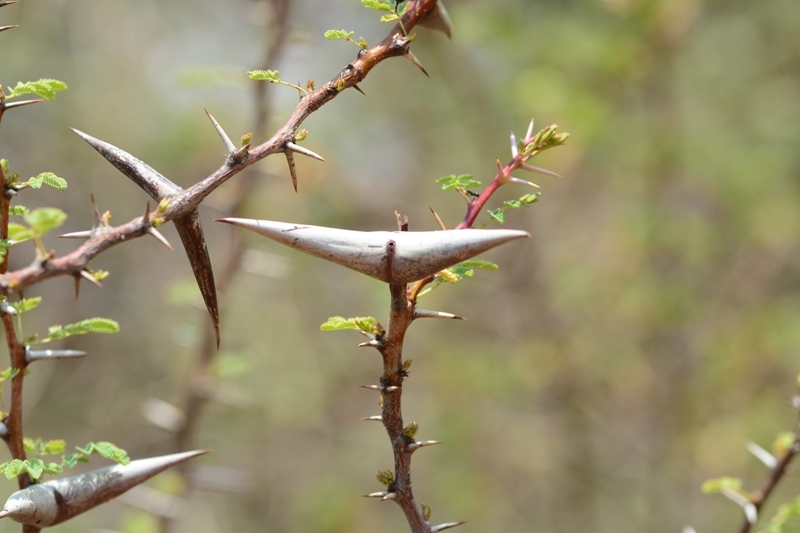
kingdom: Plantae
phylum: Tracheophyta
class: Magnoliopsida
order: Fabales
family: Fabaceae
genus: Vachellia
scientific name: Vachellia horrida
